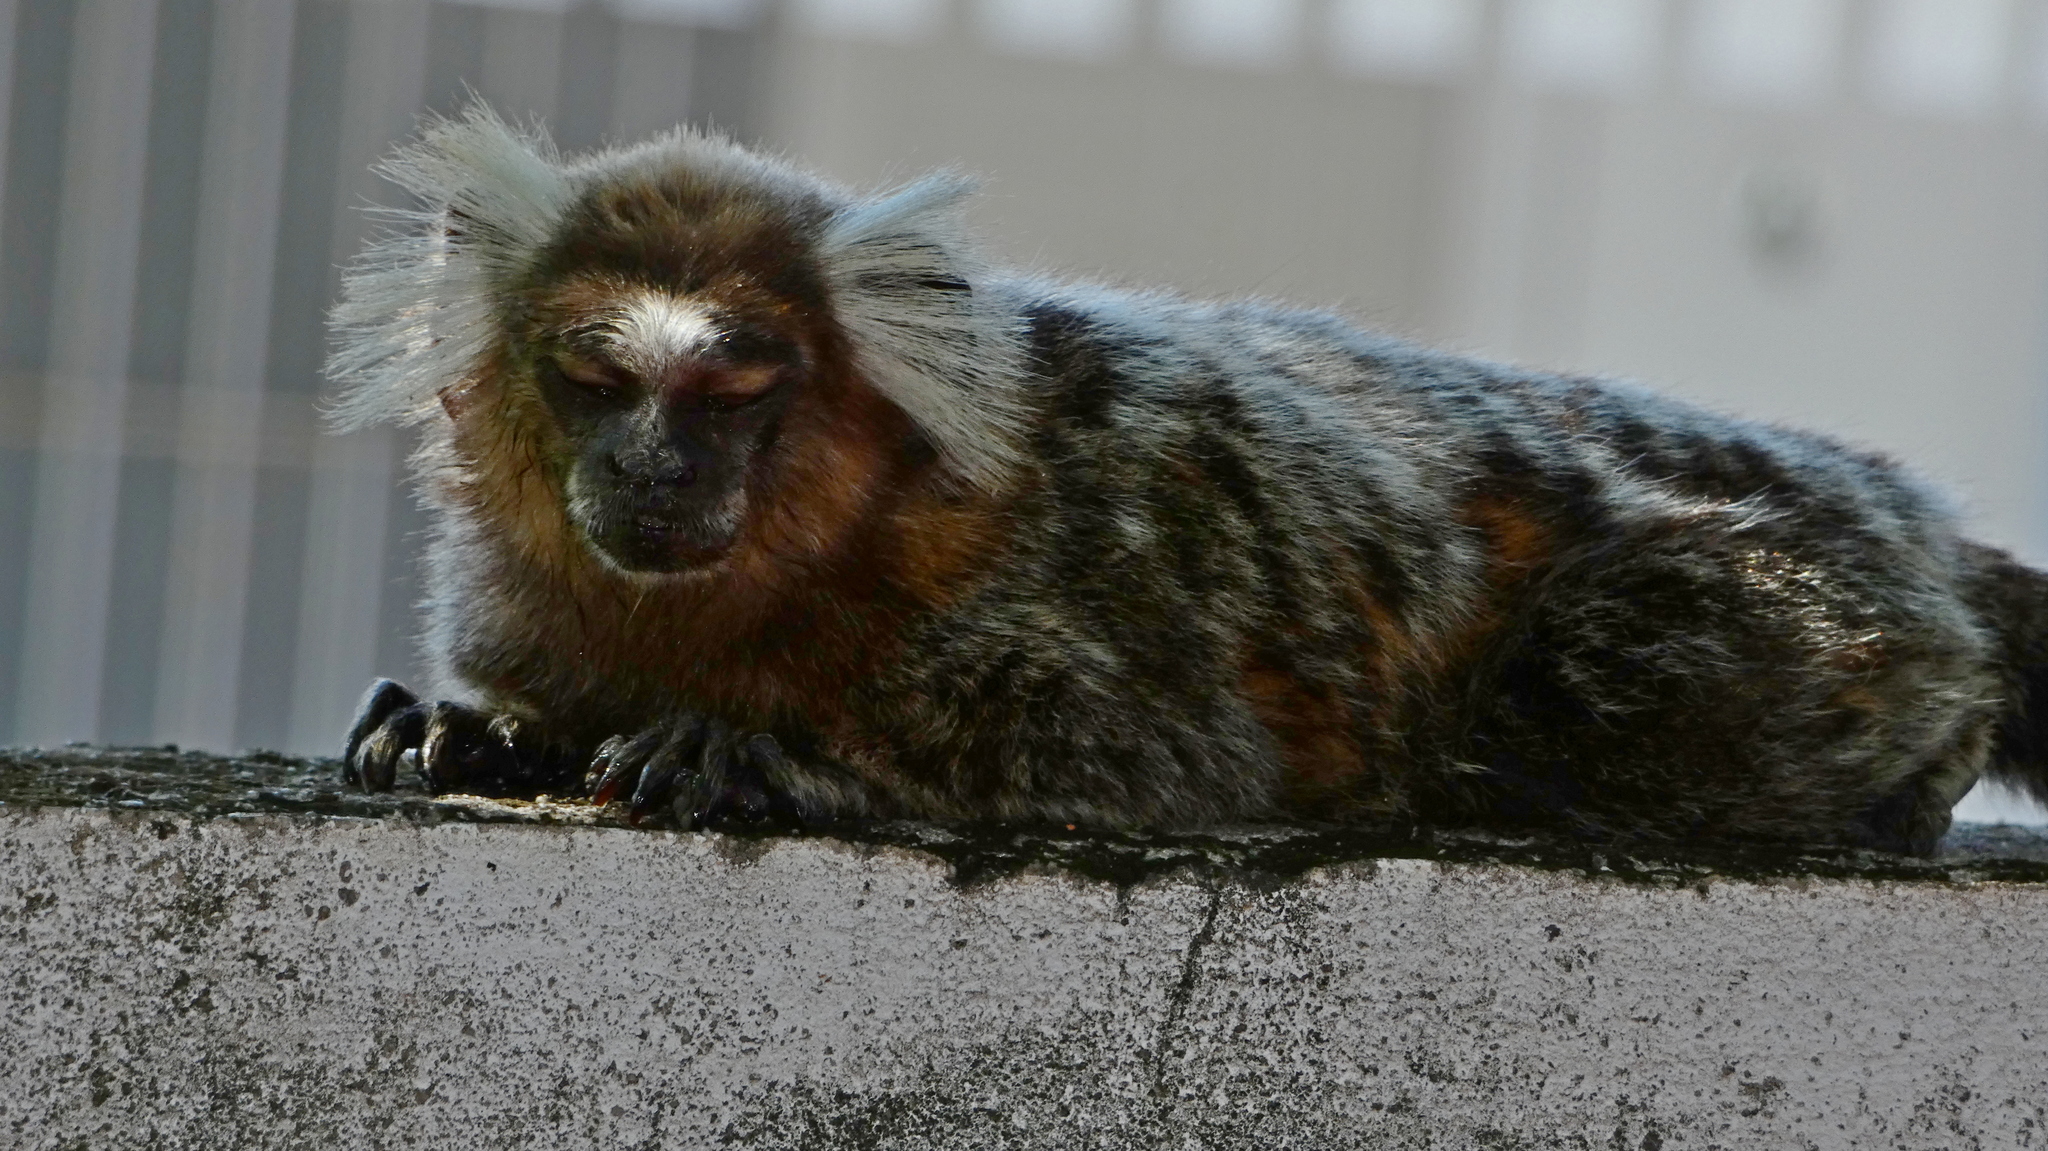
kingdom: Animalia
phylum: Chordata
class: Mammalia
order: Primates
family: Callitrichidae
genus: Callithrix
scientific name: Callithrix jacchus
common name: Common marmoset
